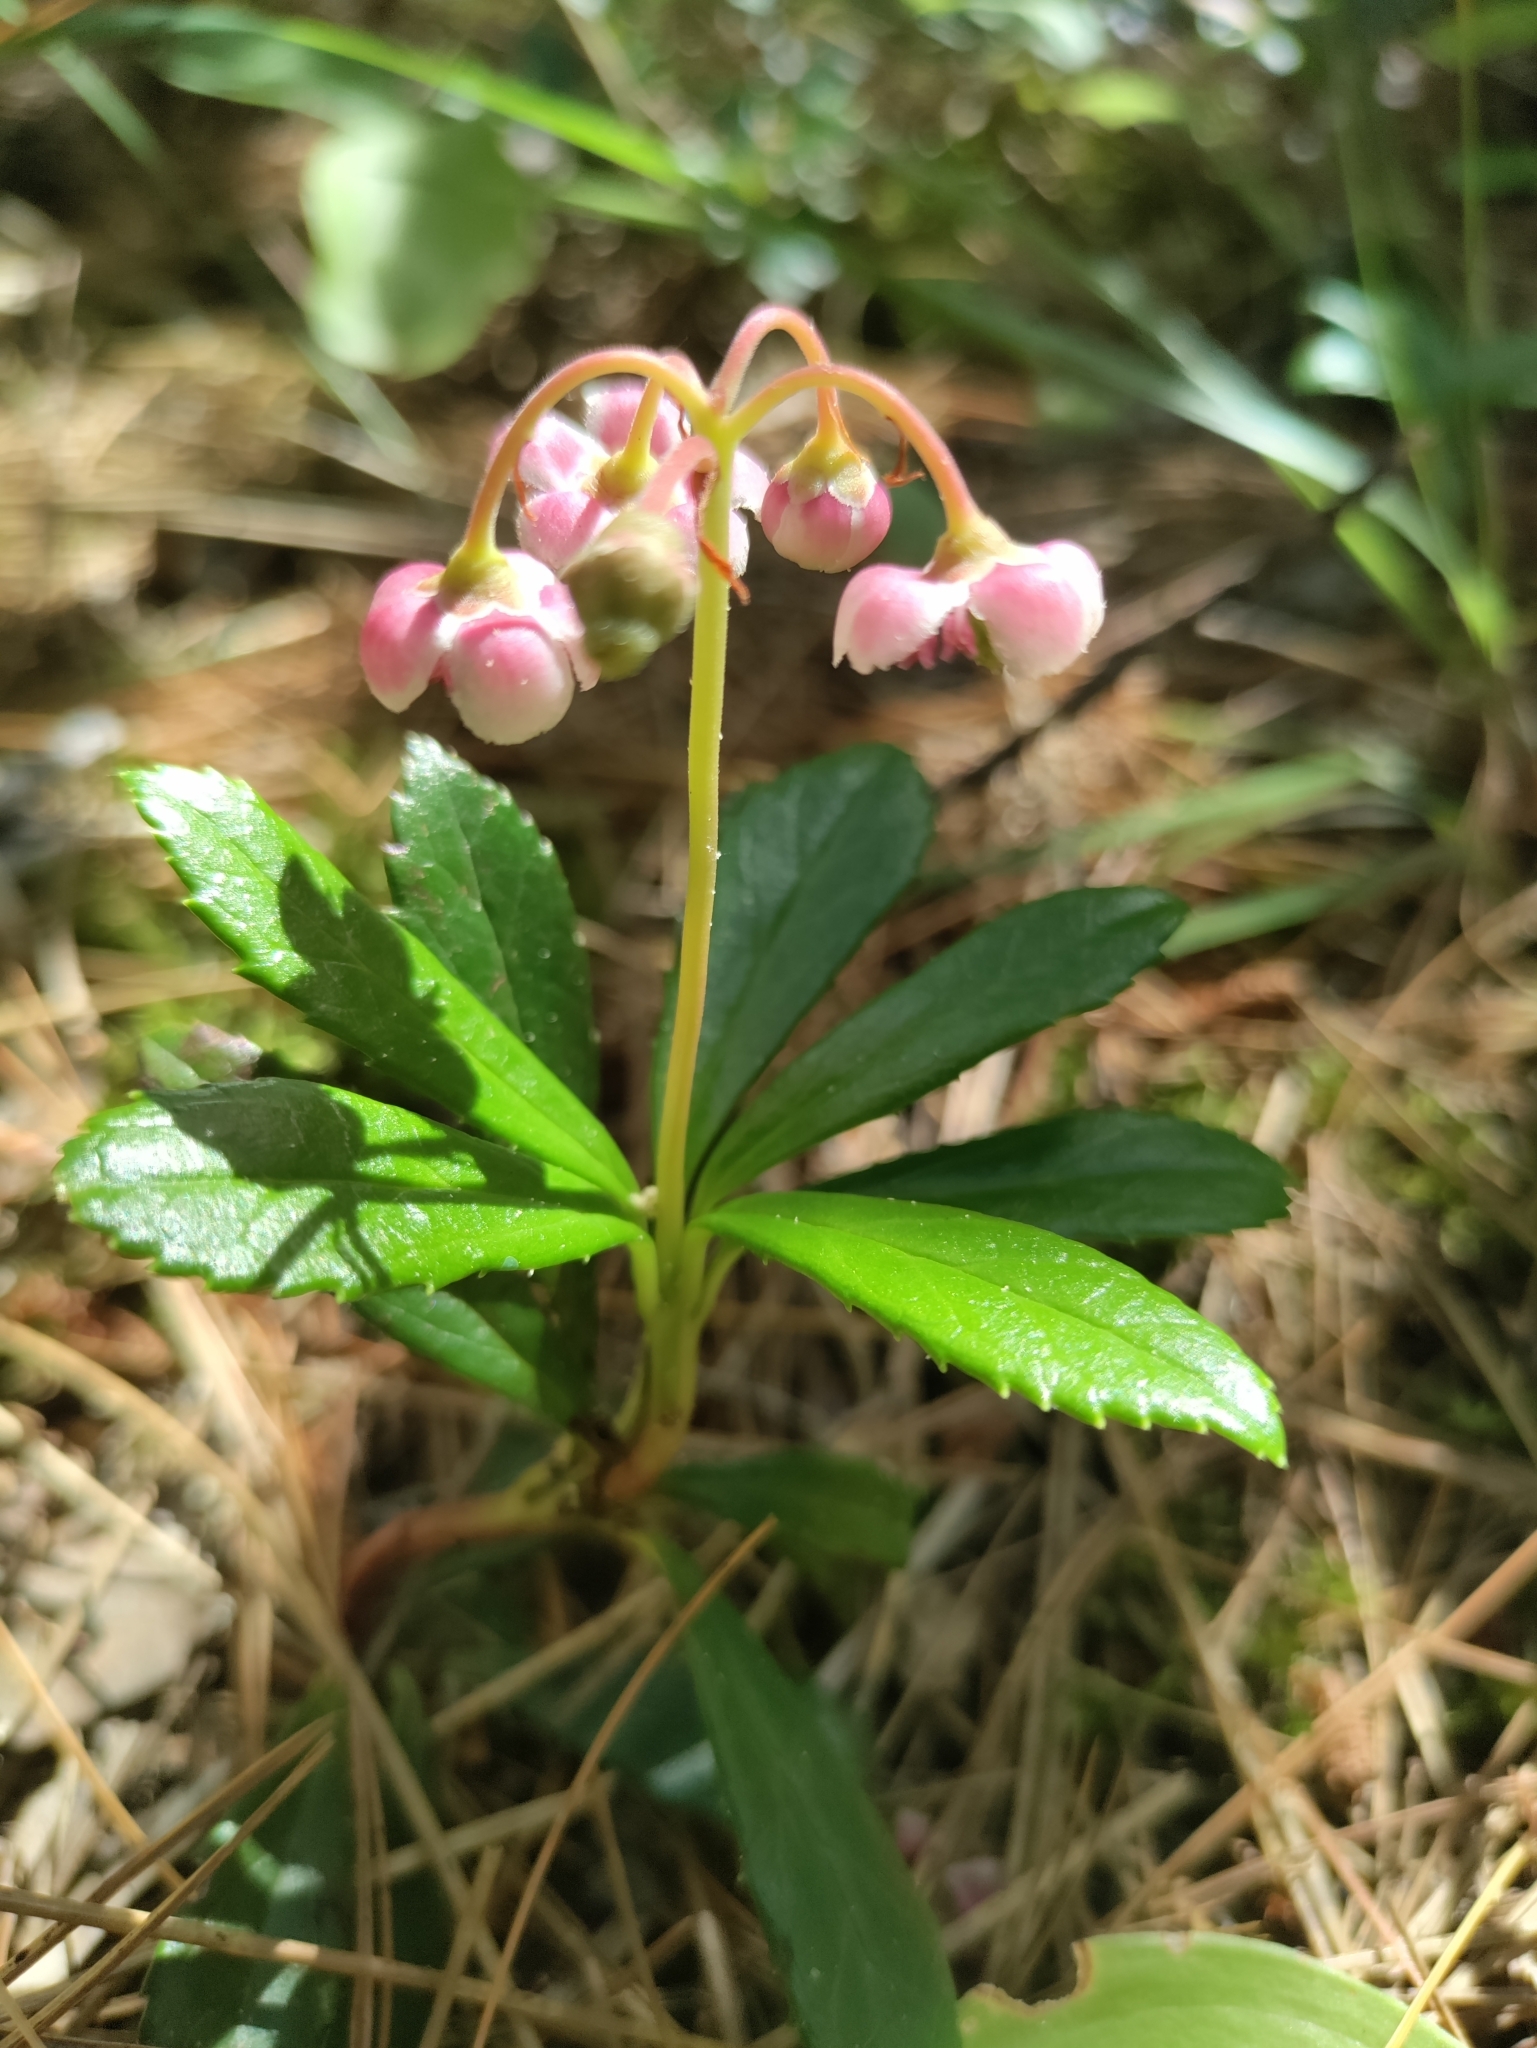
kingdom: Plantae
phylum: Tracheophyta
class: Magnoliopsida
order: Ericales
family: Ericaceae
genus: Chimaphila
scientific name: Chimaphila umbellata
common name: Pipsissewa
